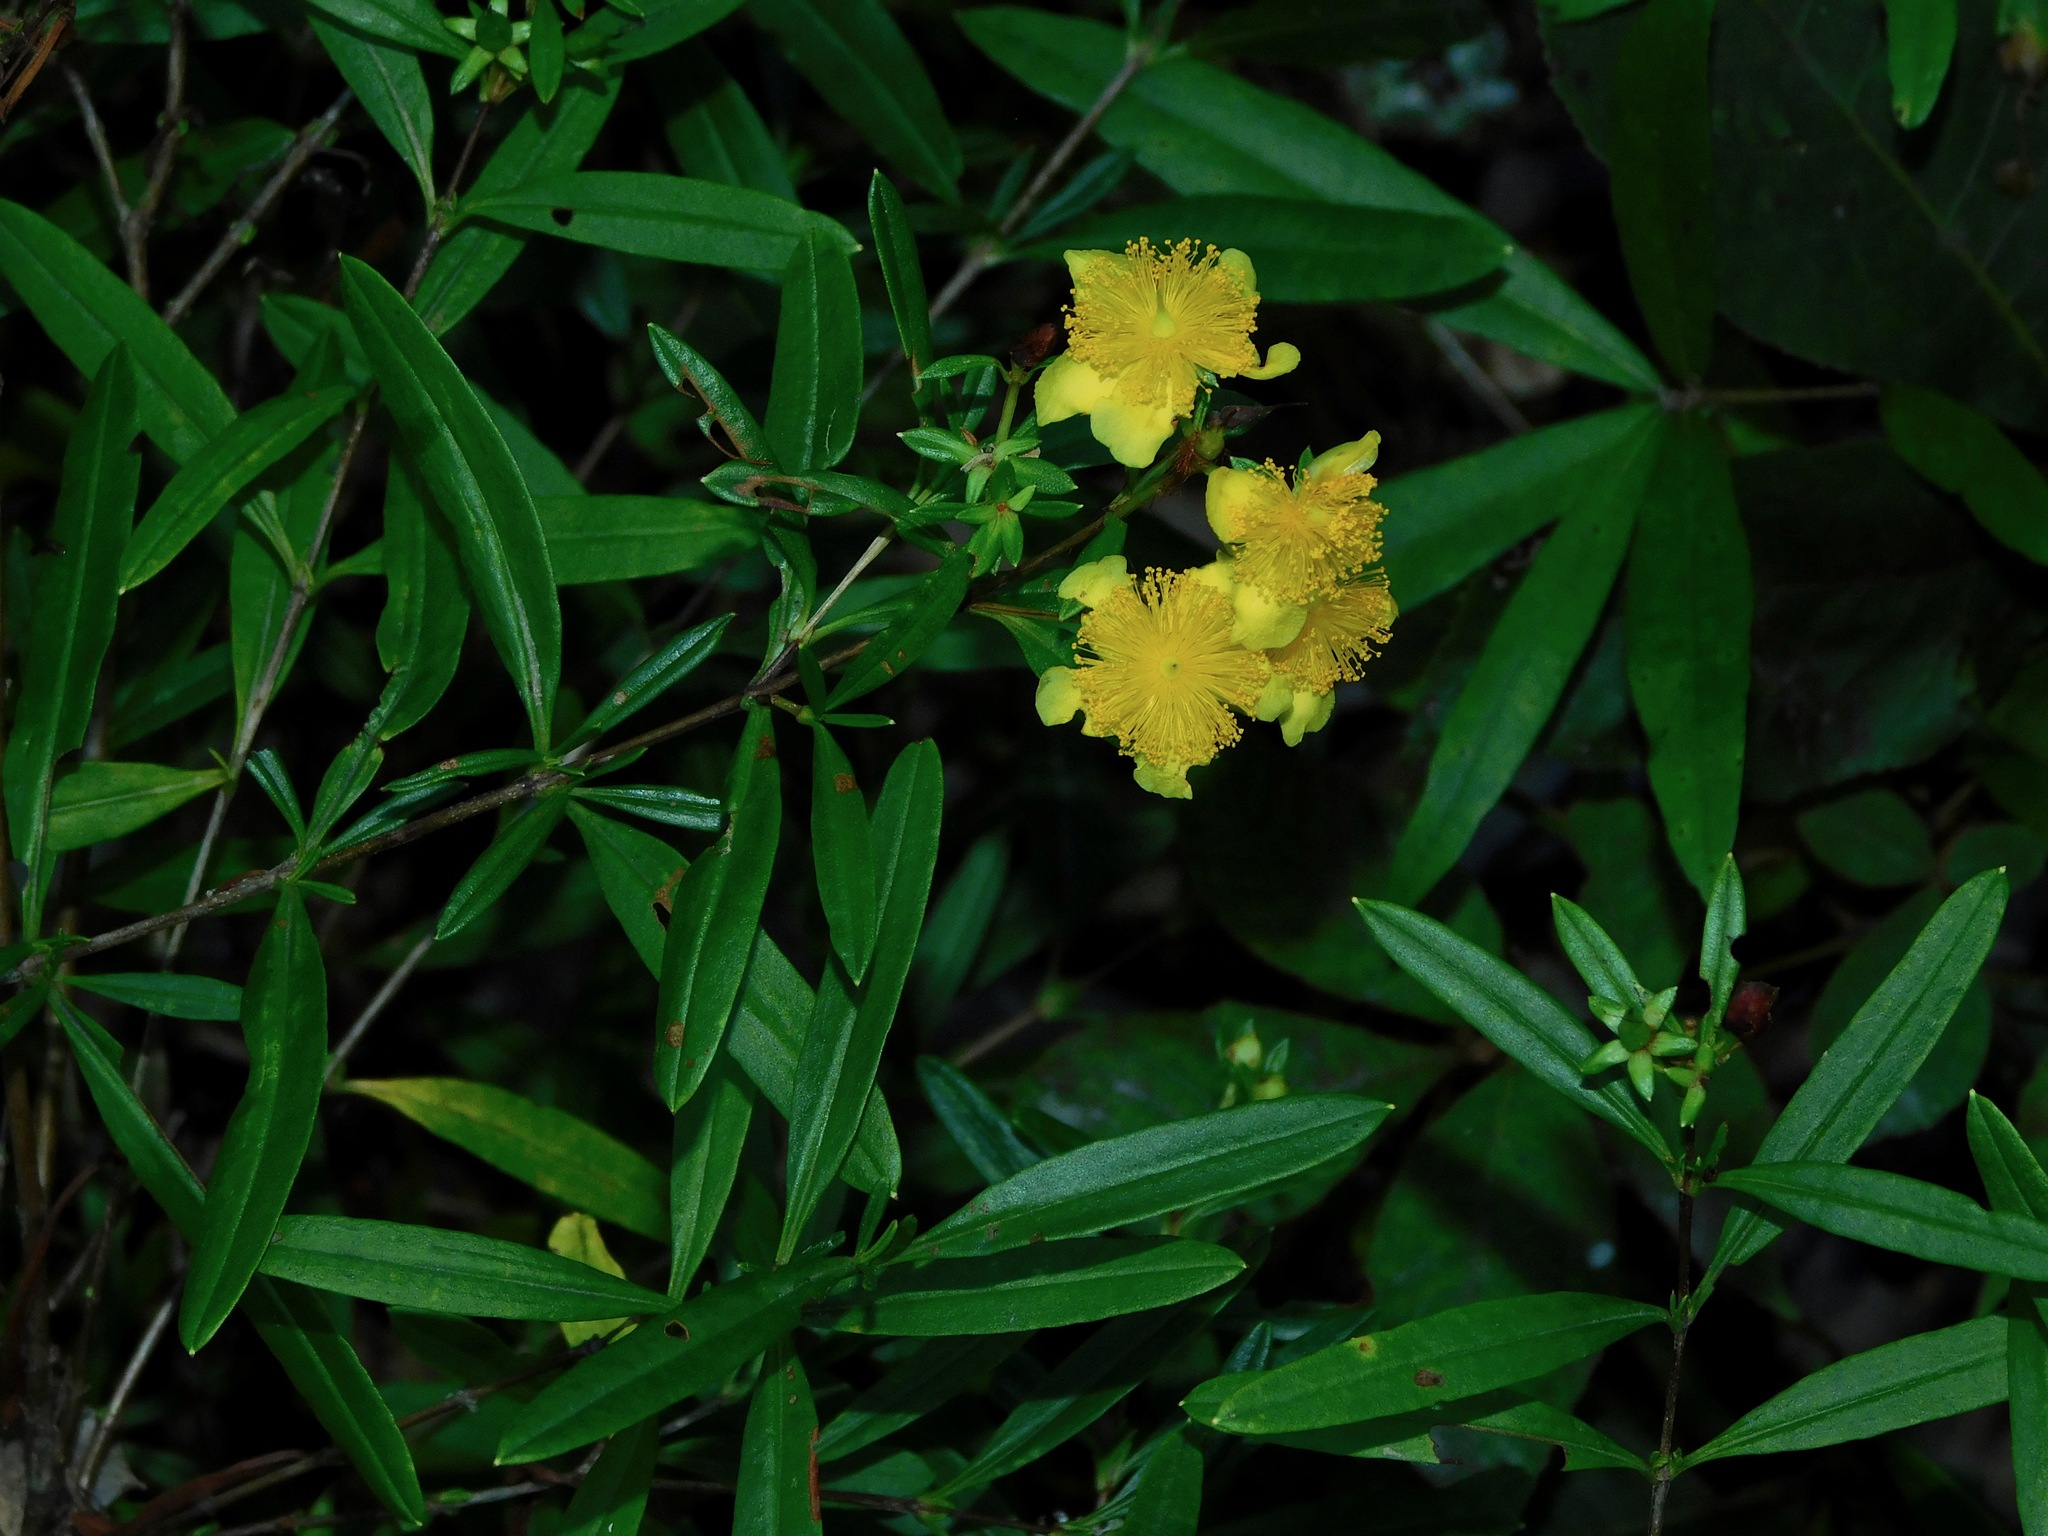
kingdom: Plantae
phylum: Tracheophyta
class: Magnoliopsida
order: Malpighiales
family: Hypericaceae
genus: Hypericum
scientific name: Hypericum prolificum
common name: Shrubby st. john's-wort
